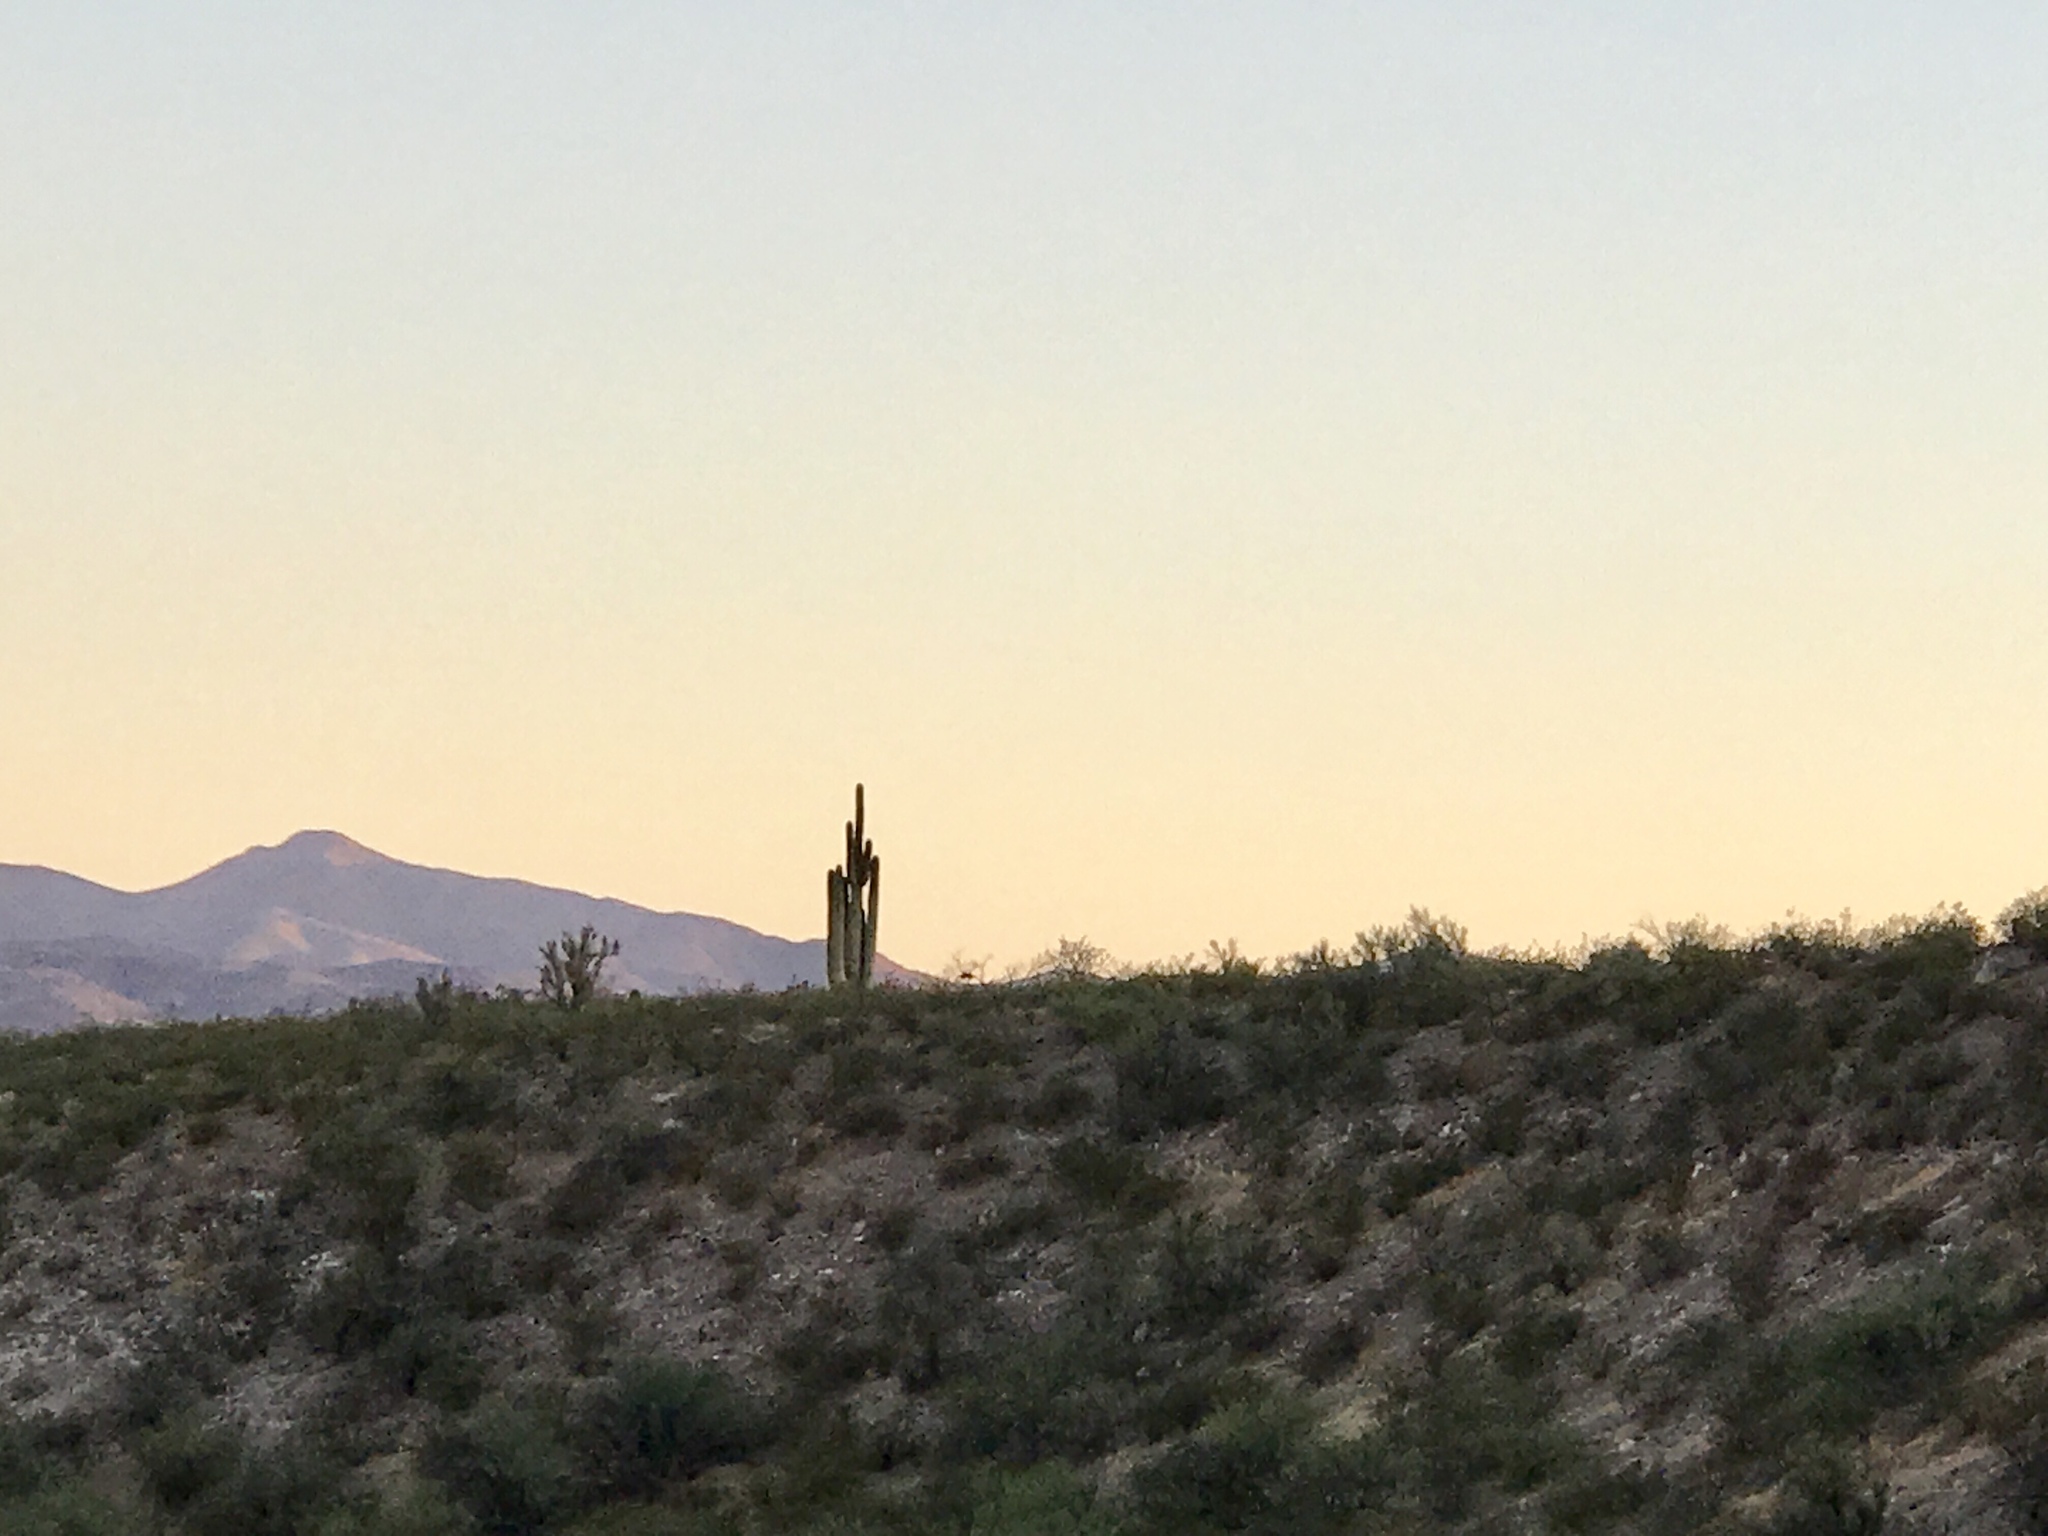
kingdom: Plantae
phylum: Tracheophyta
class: Magnoliopsida
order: Caryophyllales
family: Cactaceae
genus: Carnegiea
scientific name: Carnegiea gigantea
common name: Saguaro
